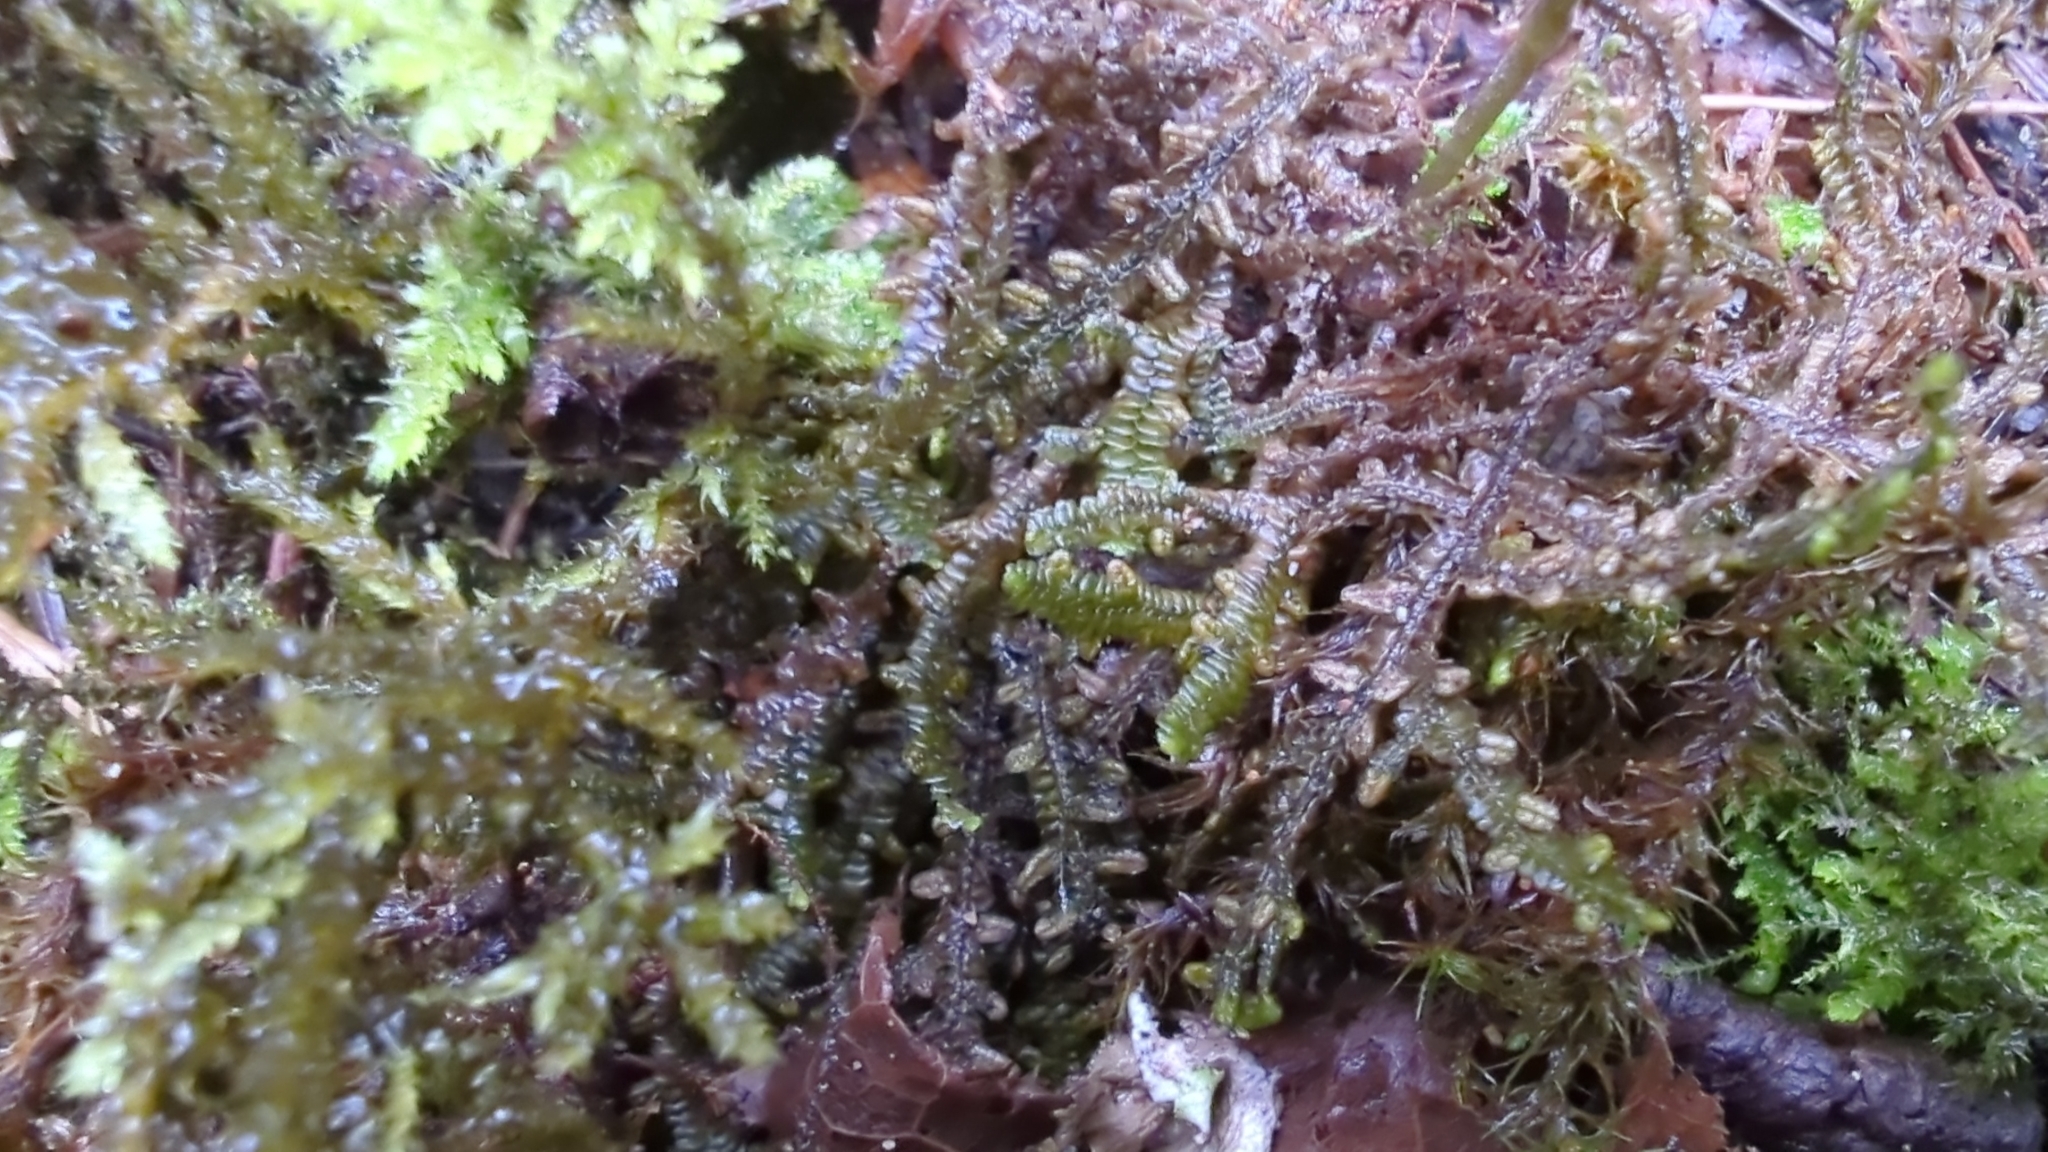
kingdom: Plantae
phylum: Marchantiophyta
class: Jungermanniopsida
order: Porellales
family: Porellaceae
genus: Porella
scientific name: Porella navicularis
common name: Tree ruffle liverwort
